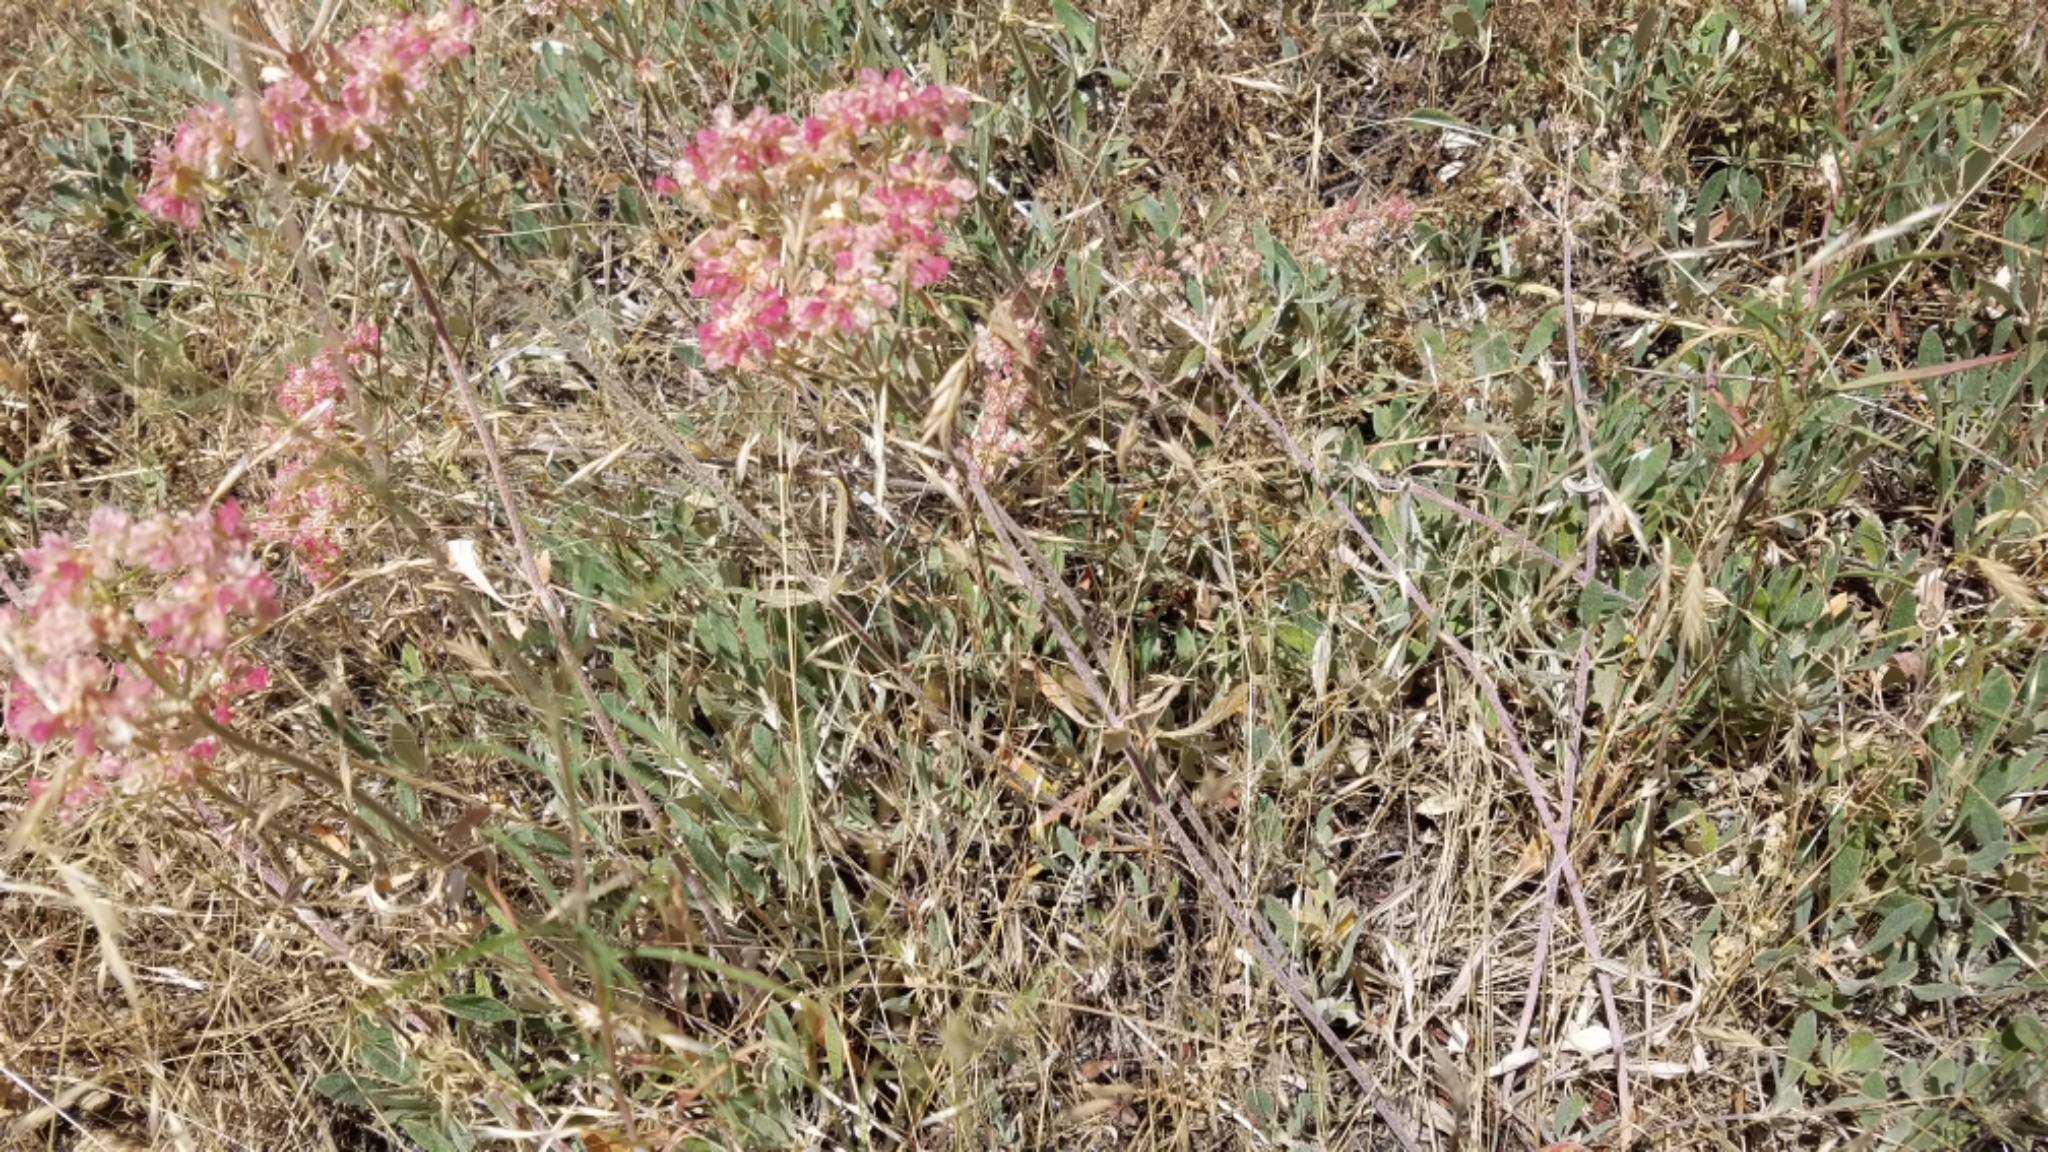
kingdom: Plantae
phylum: Tracheophyta
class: Magnoliopsida
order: Caryophyllales
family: Polygonaceae
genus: Eriogonum
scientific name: Eriogonum heracleoides
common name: Wyeth's buckwheat
